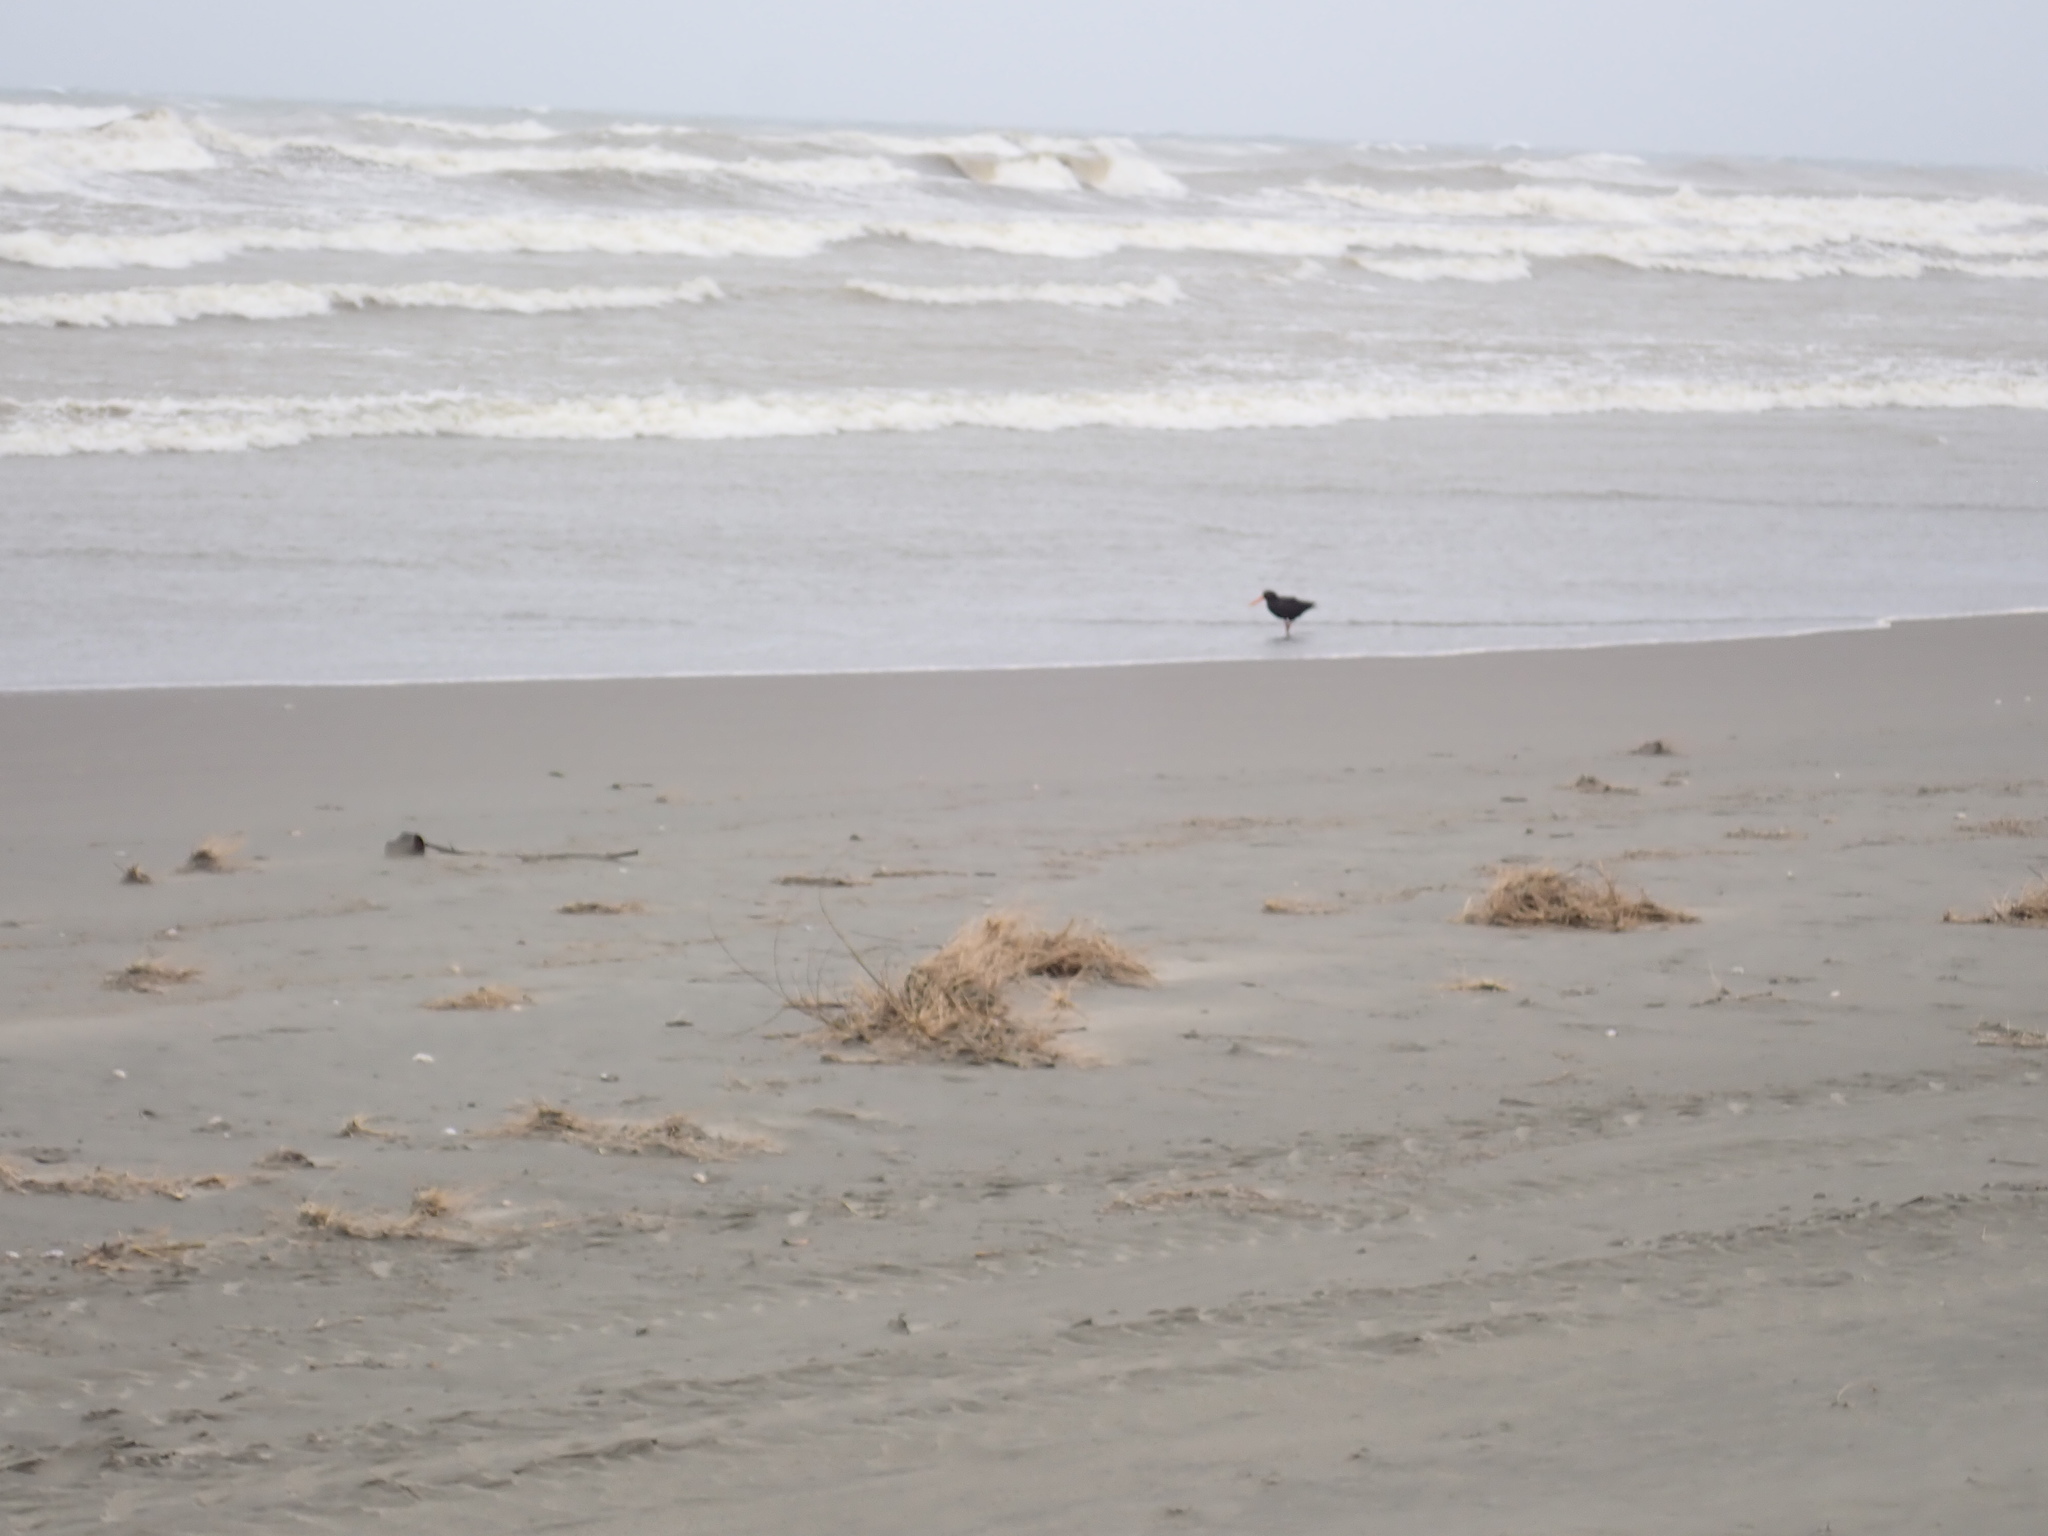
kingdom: Animalia
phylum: Chordata
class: Aves
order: Charadriiformes
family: Haematopodidae
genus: Haematopus
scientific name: Haematopus unicolor
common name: Variable oystercatcher
